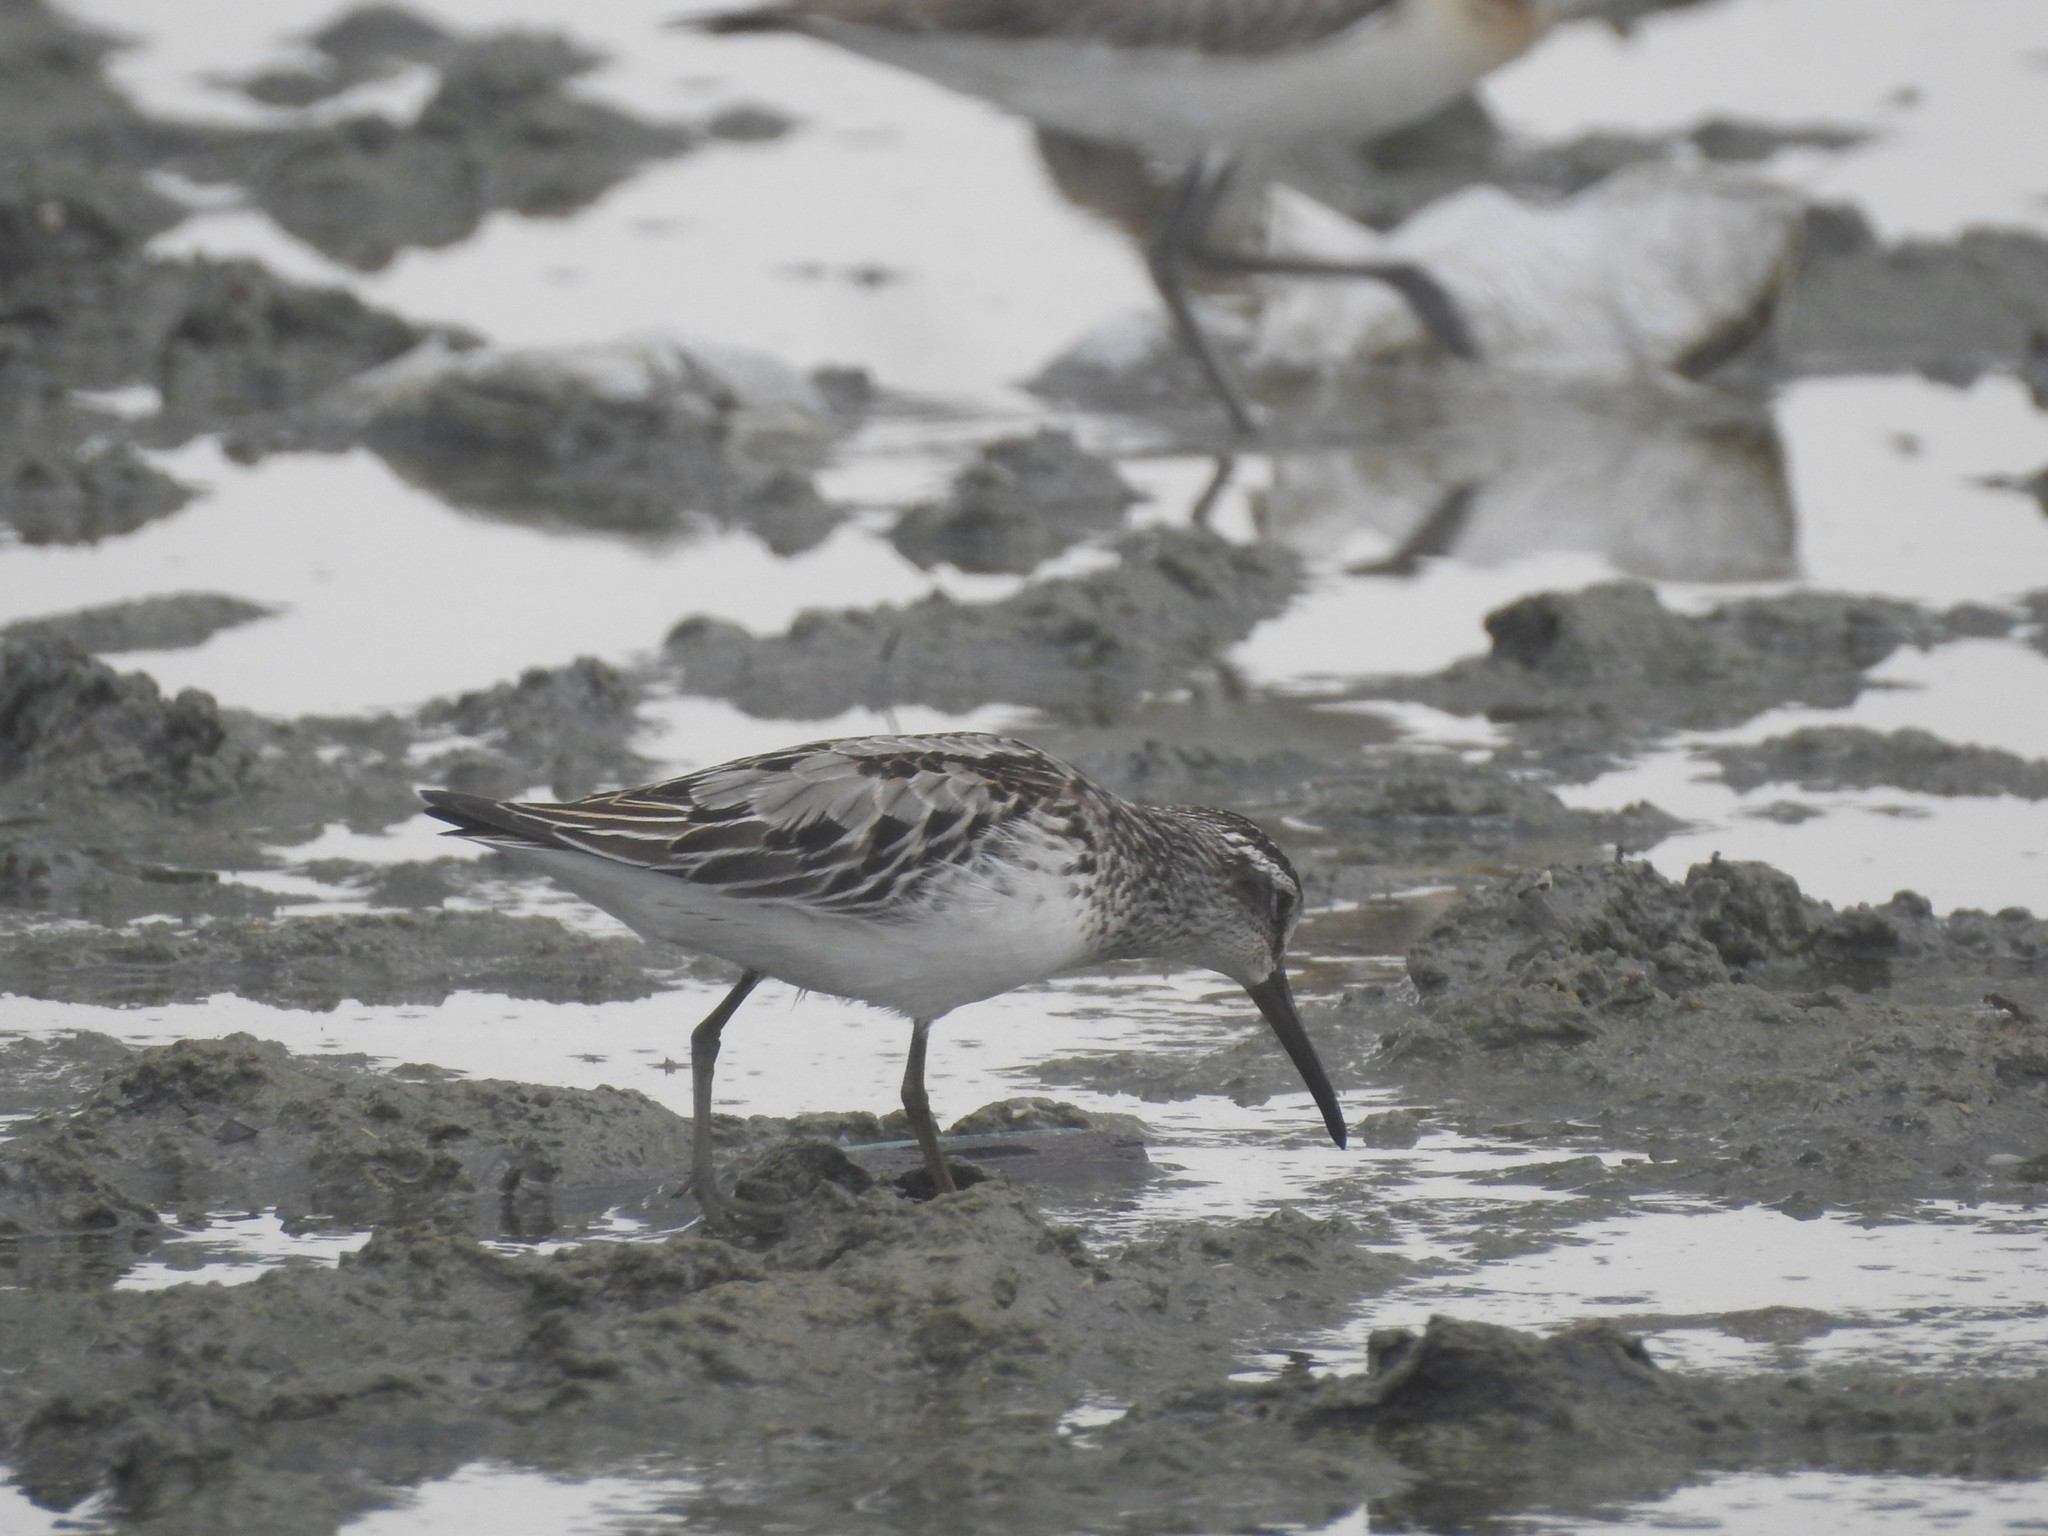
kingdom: Animalia
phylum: Chordata
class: Aves
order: Charadriiformes
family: Scolopacidae
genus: Calidris
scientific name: Calidris falcinellus
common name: Broad-billed sandpiper
